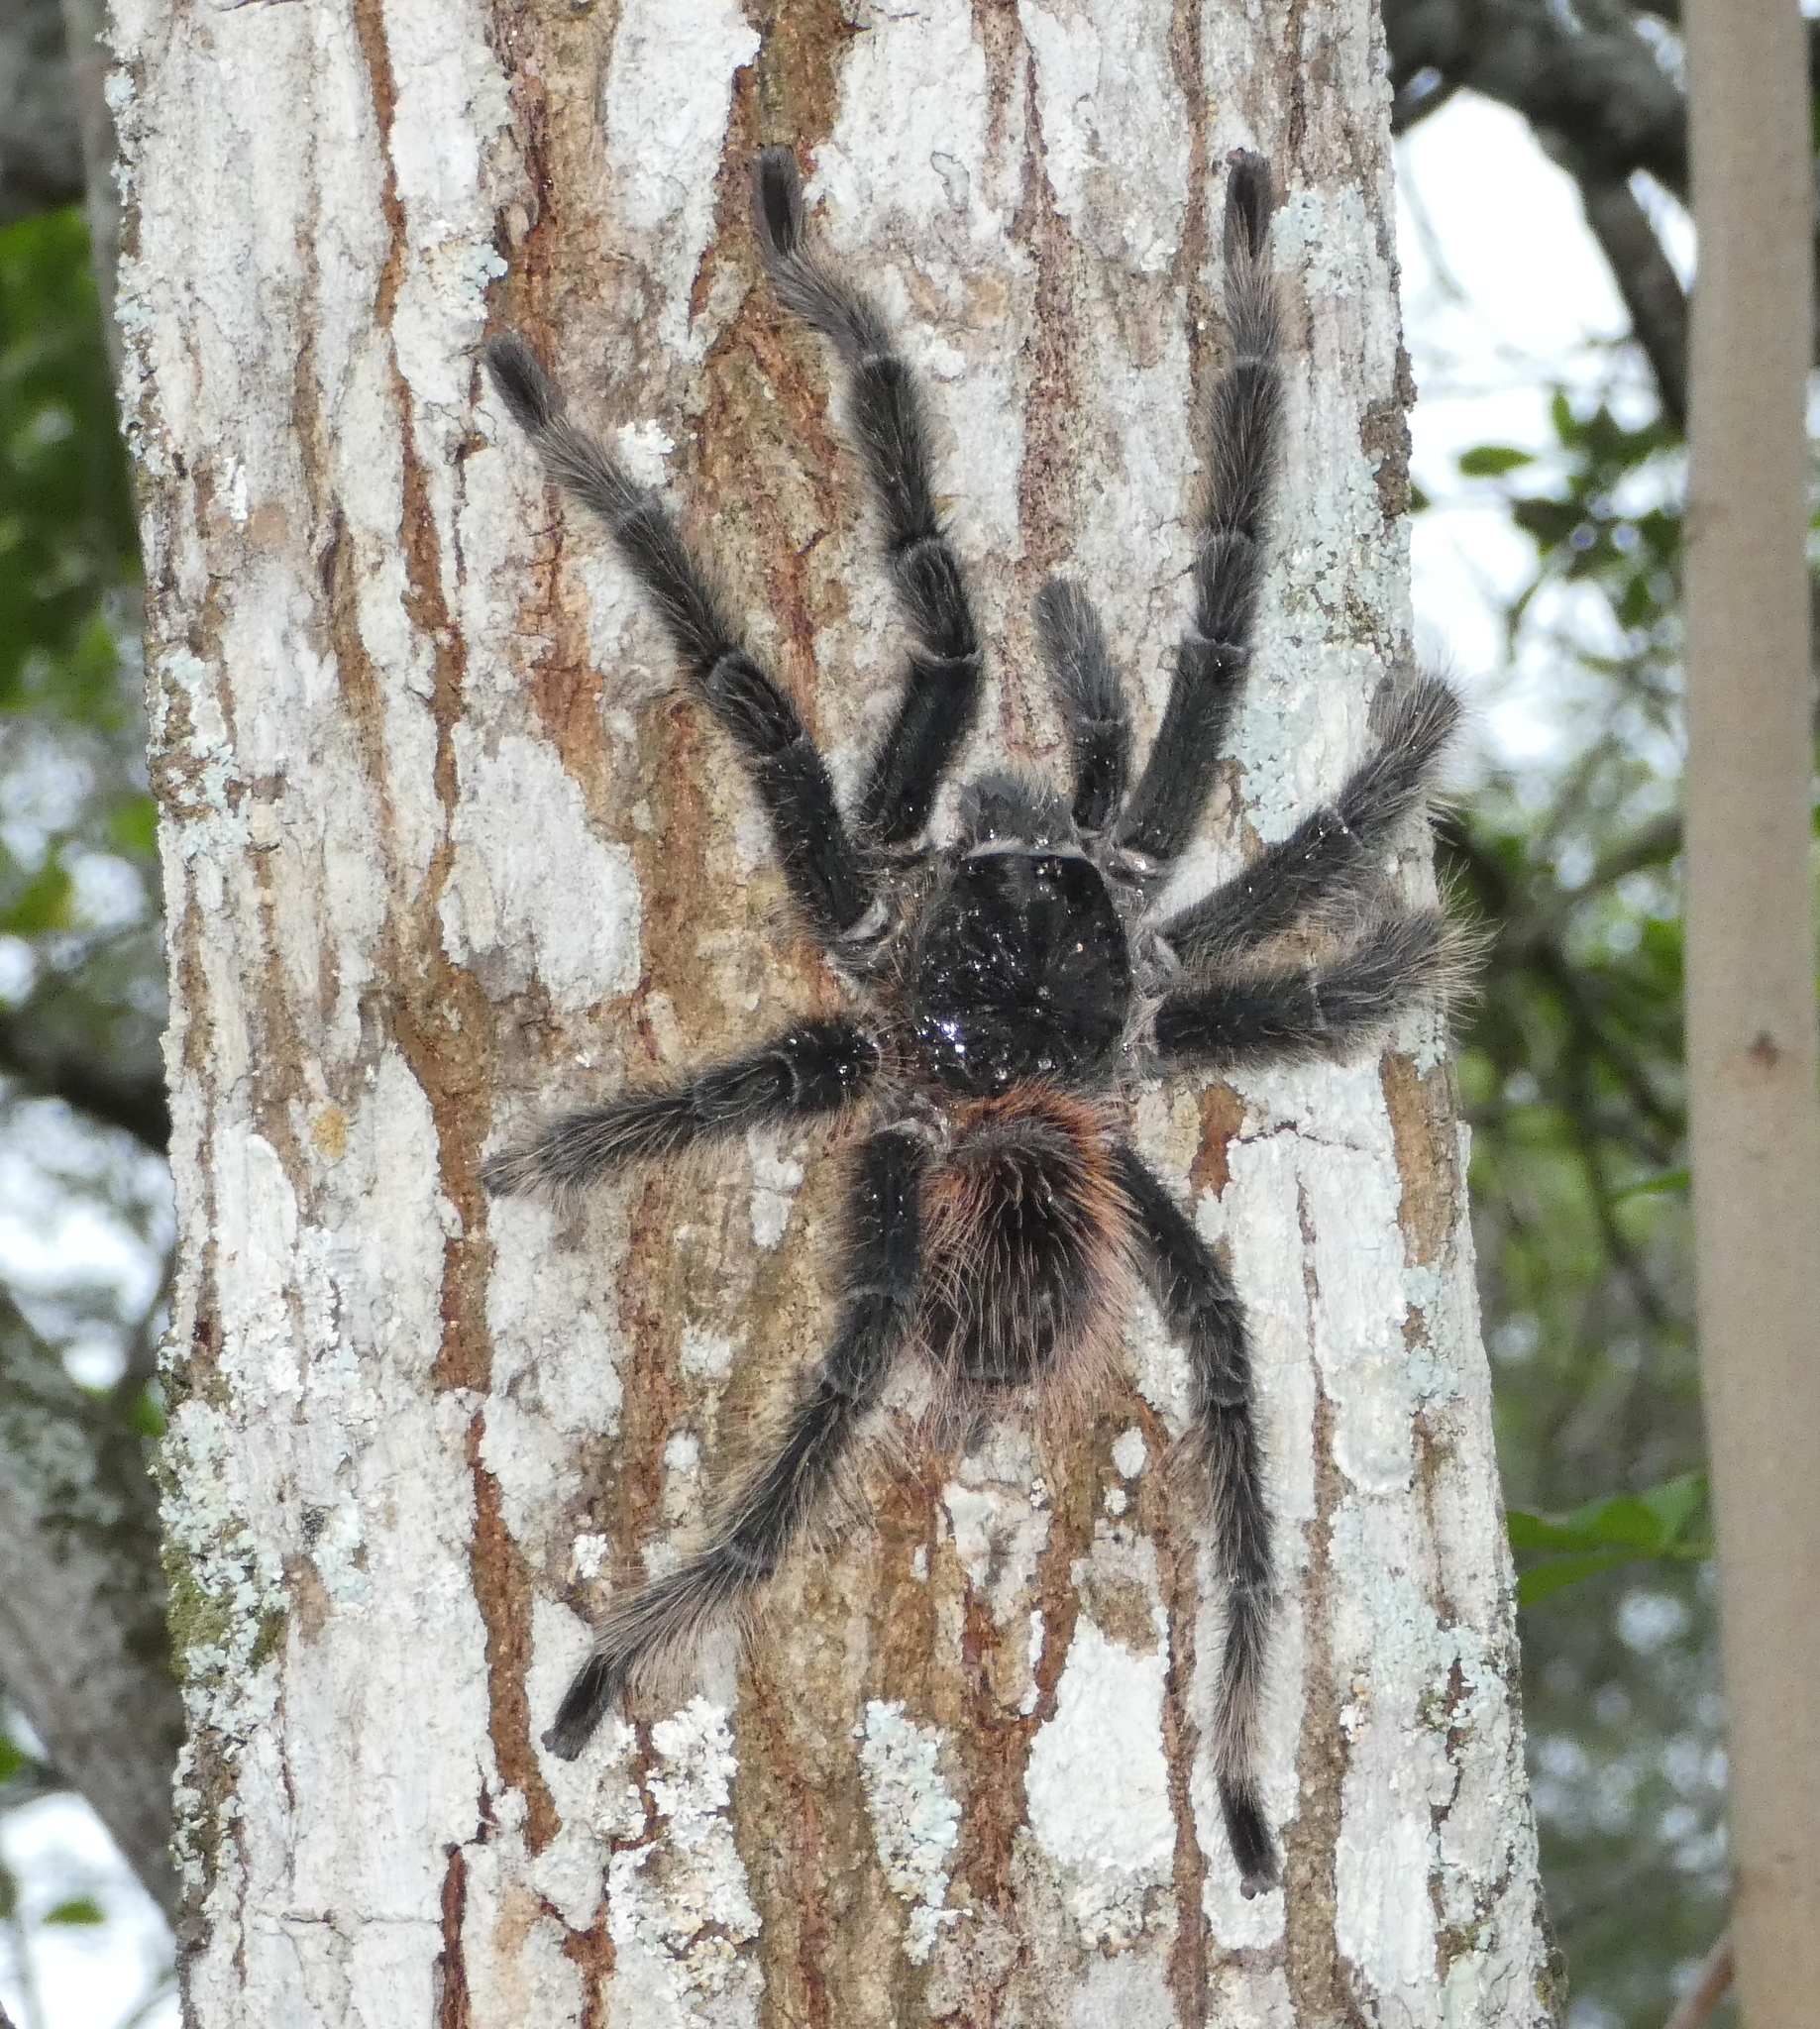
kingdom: Animalia
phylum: Arthropoda
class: Arachnida
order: Araneae
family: Theraphosidae
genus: Lasiodora
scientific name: Lasiodora parahybana
